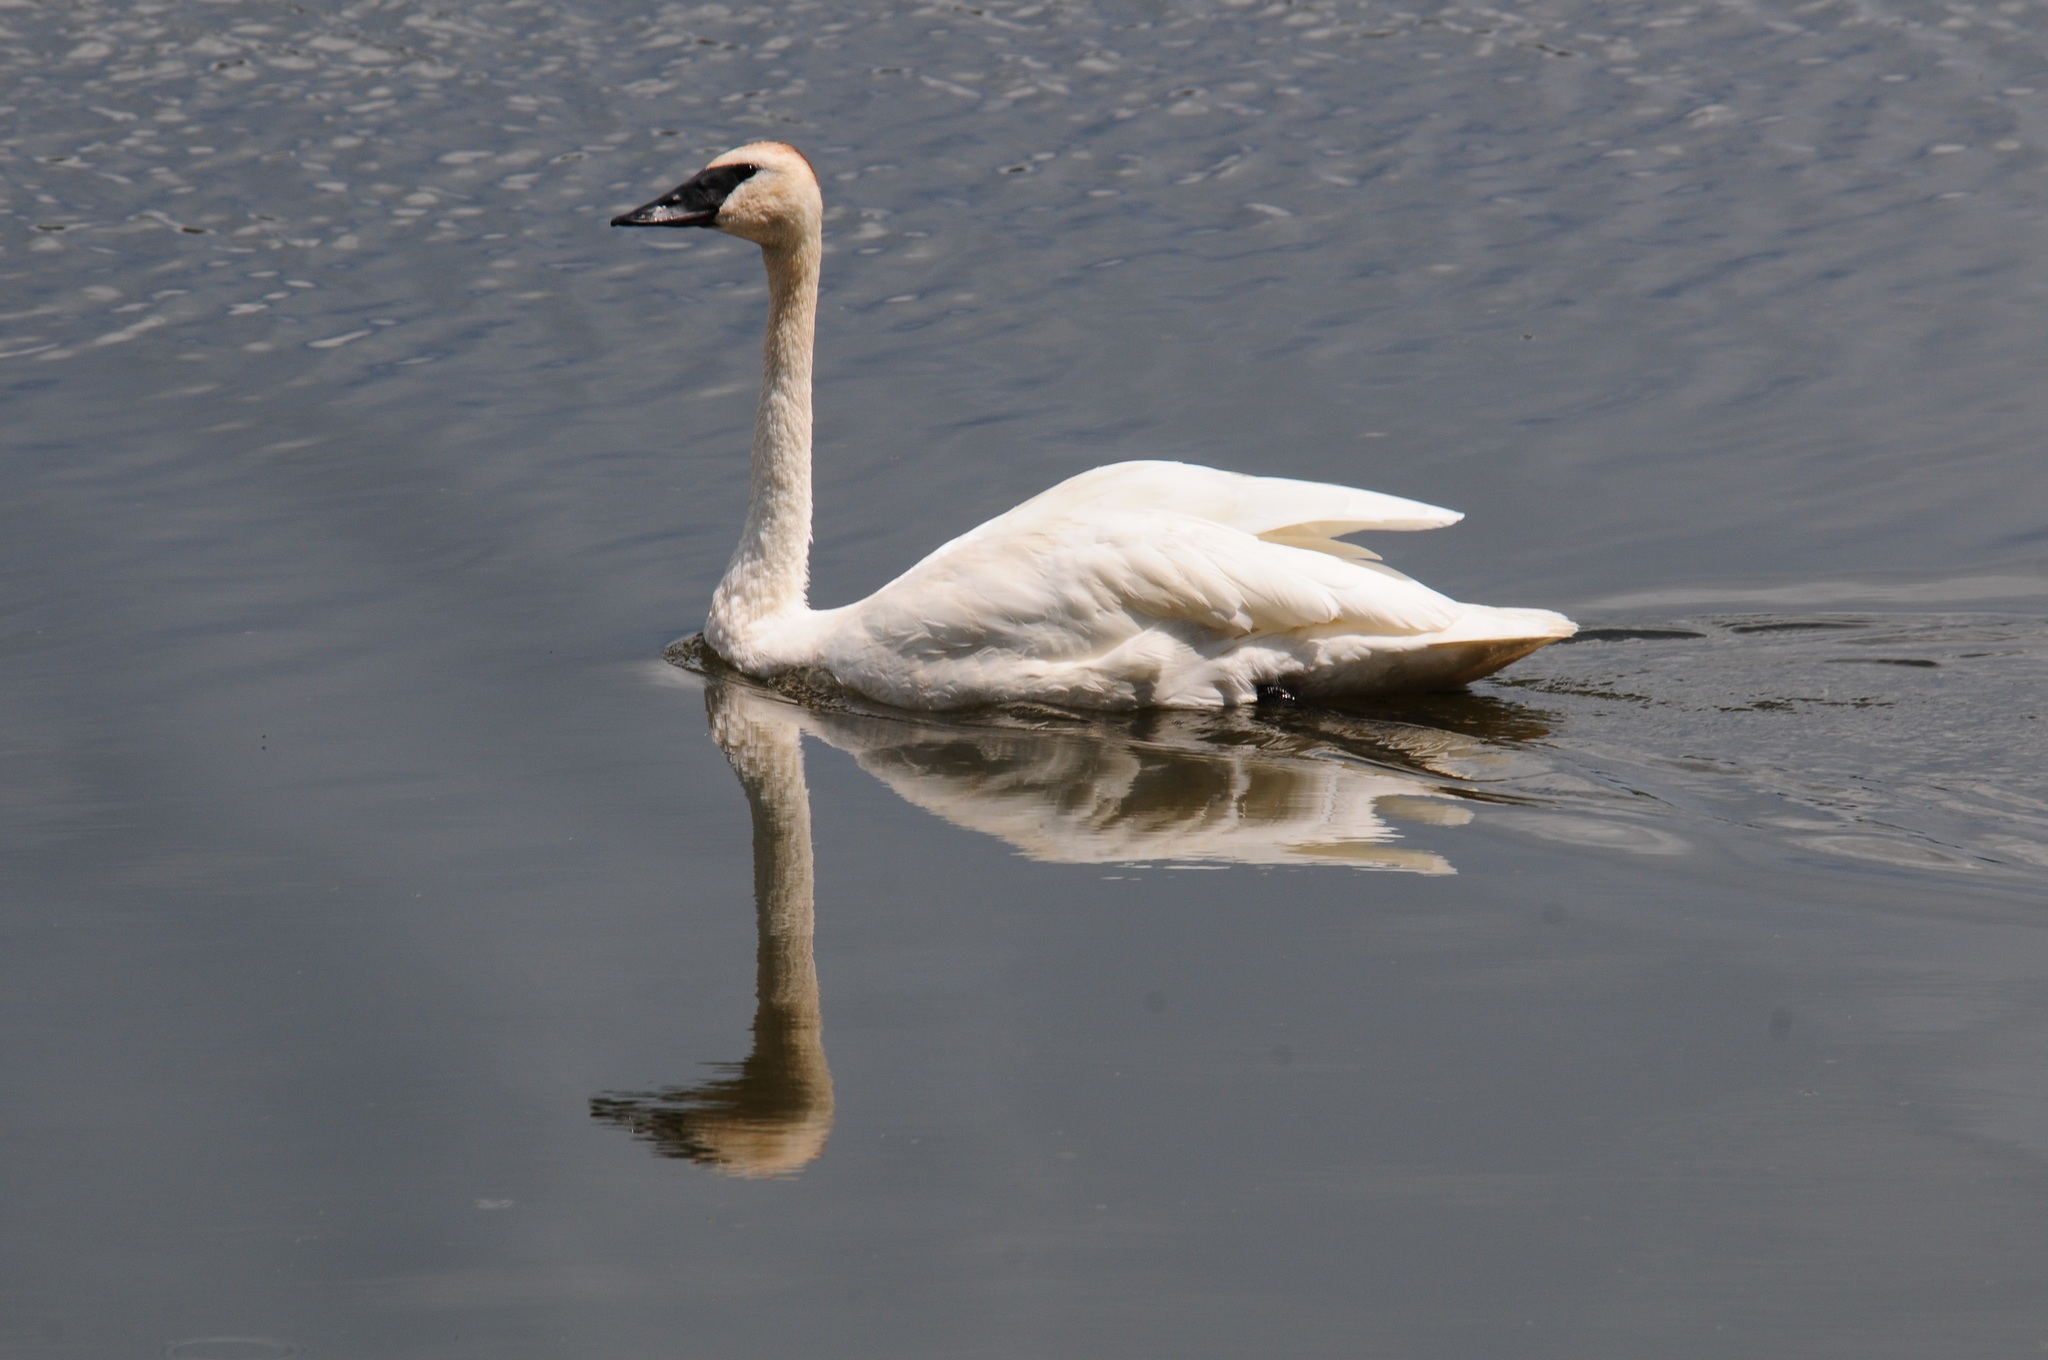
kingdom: Animalia
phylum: Chordata
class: Aves
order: Anseriformes
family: Anatidae
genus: Cygnus
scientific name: Cygnus buccinator
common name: Trumpeter swan
